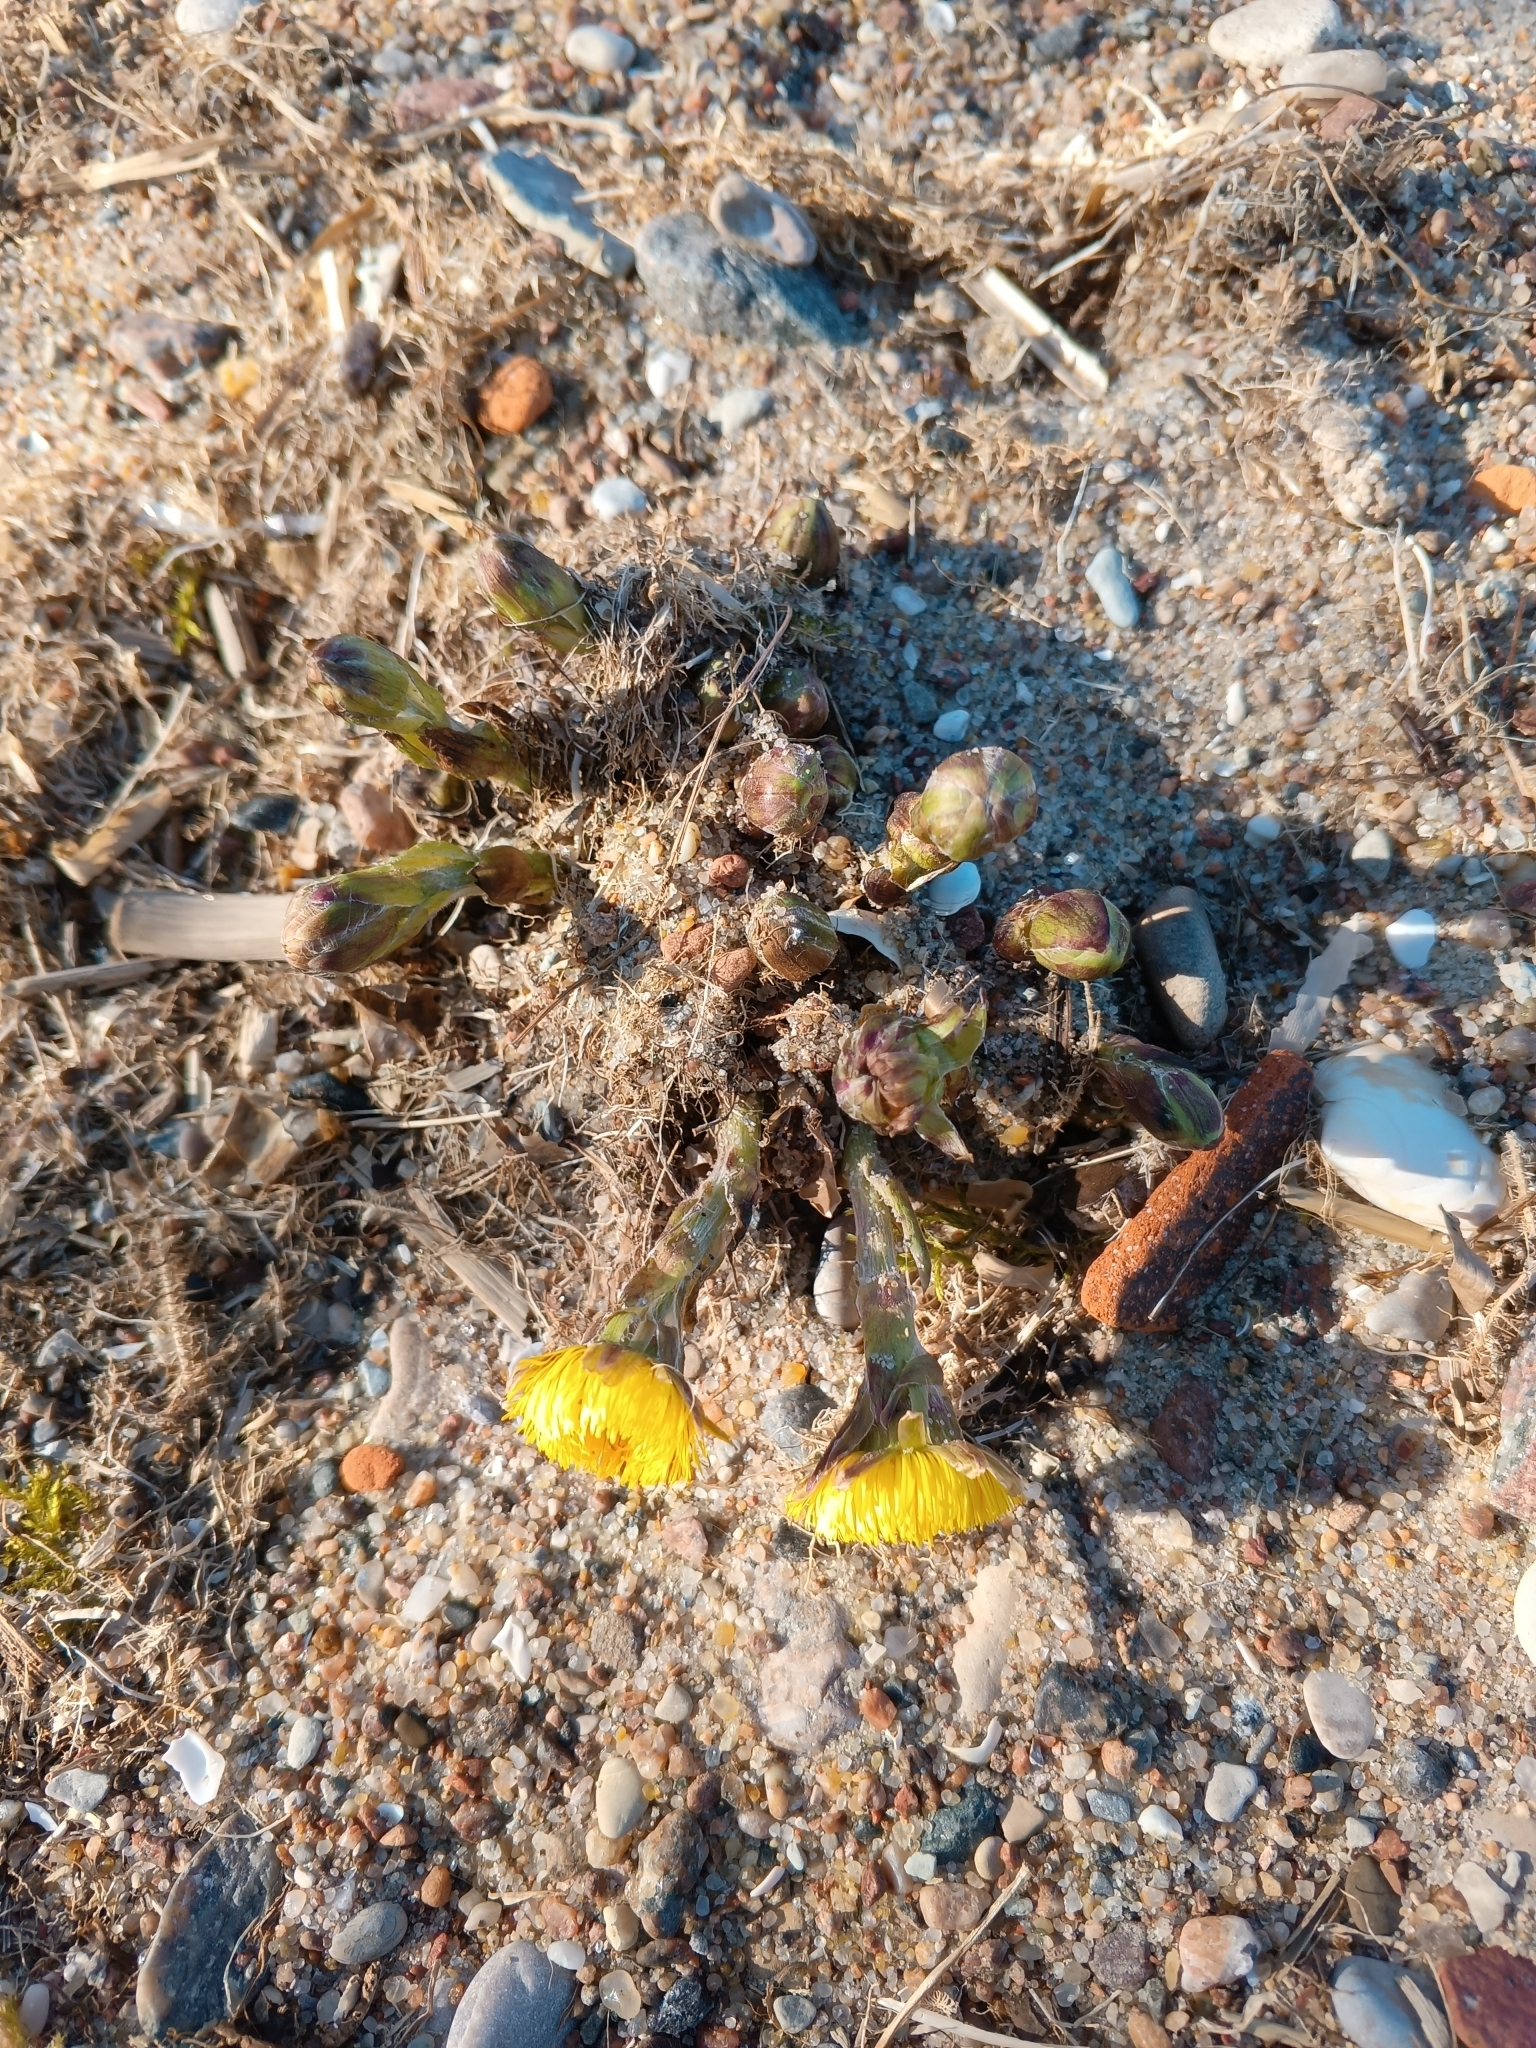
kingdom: Plantae
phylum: Tracheophyta
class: Magnoliopsida
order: Asterales
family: Asteraceae
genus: Tussilago
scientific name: Tussilago farfara
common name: Coltsfoot
